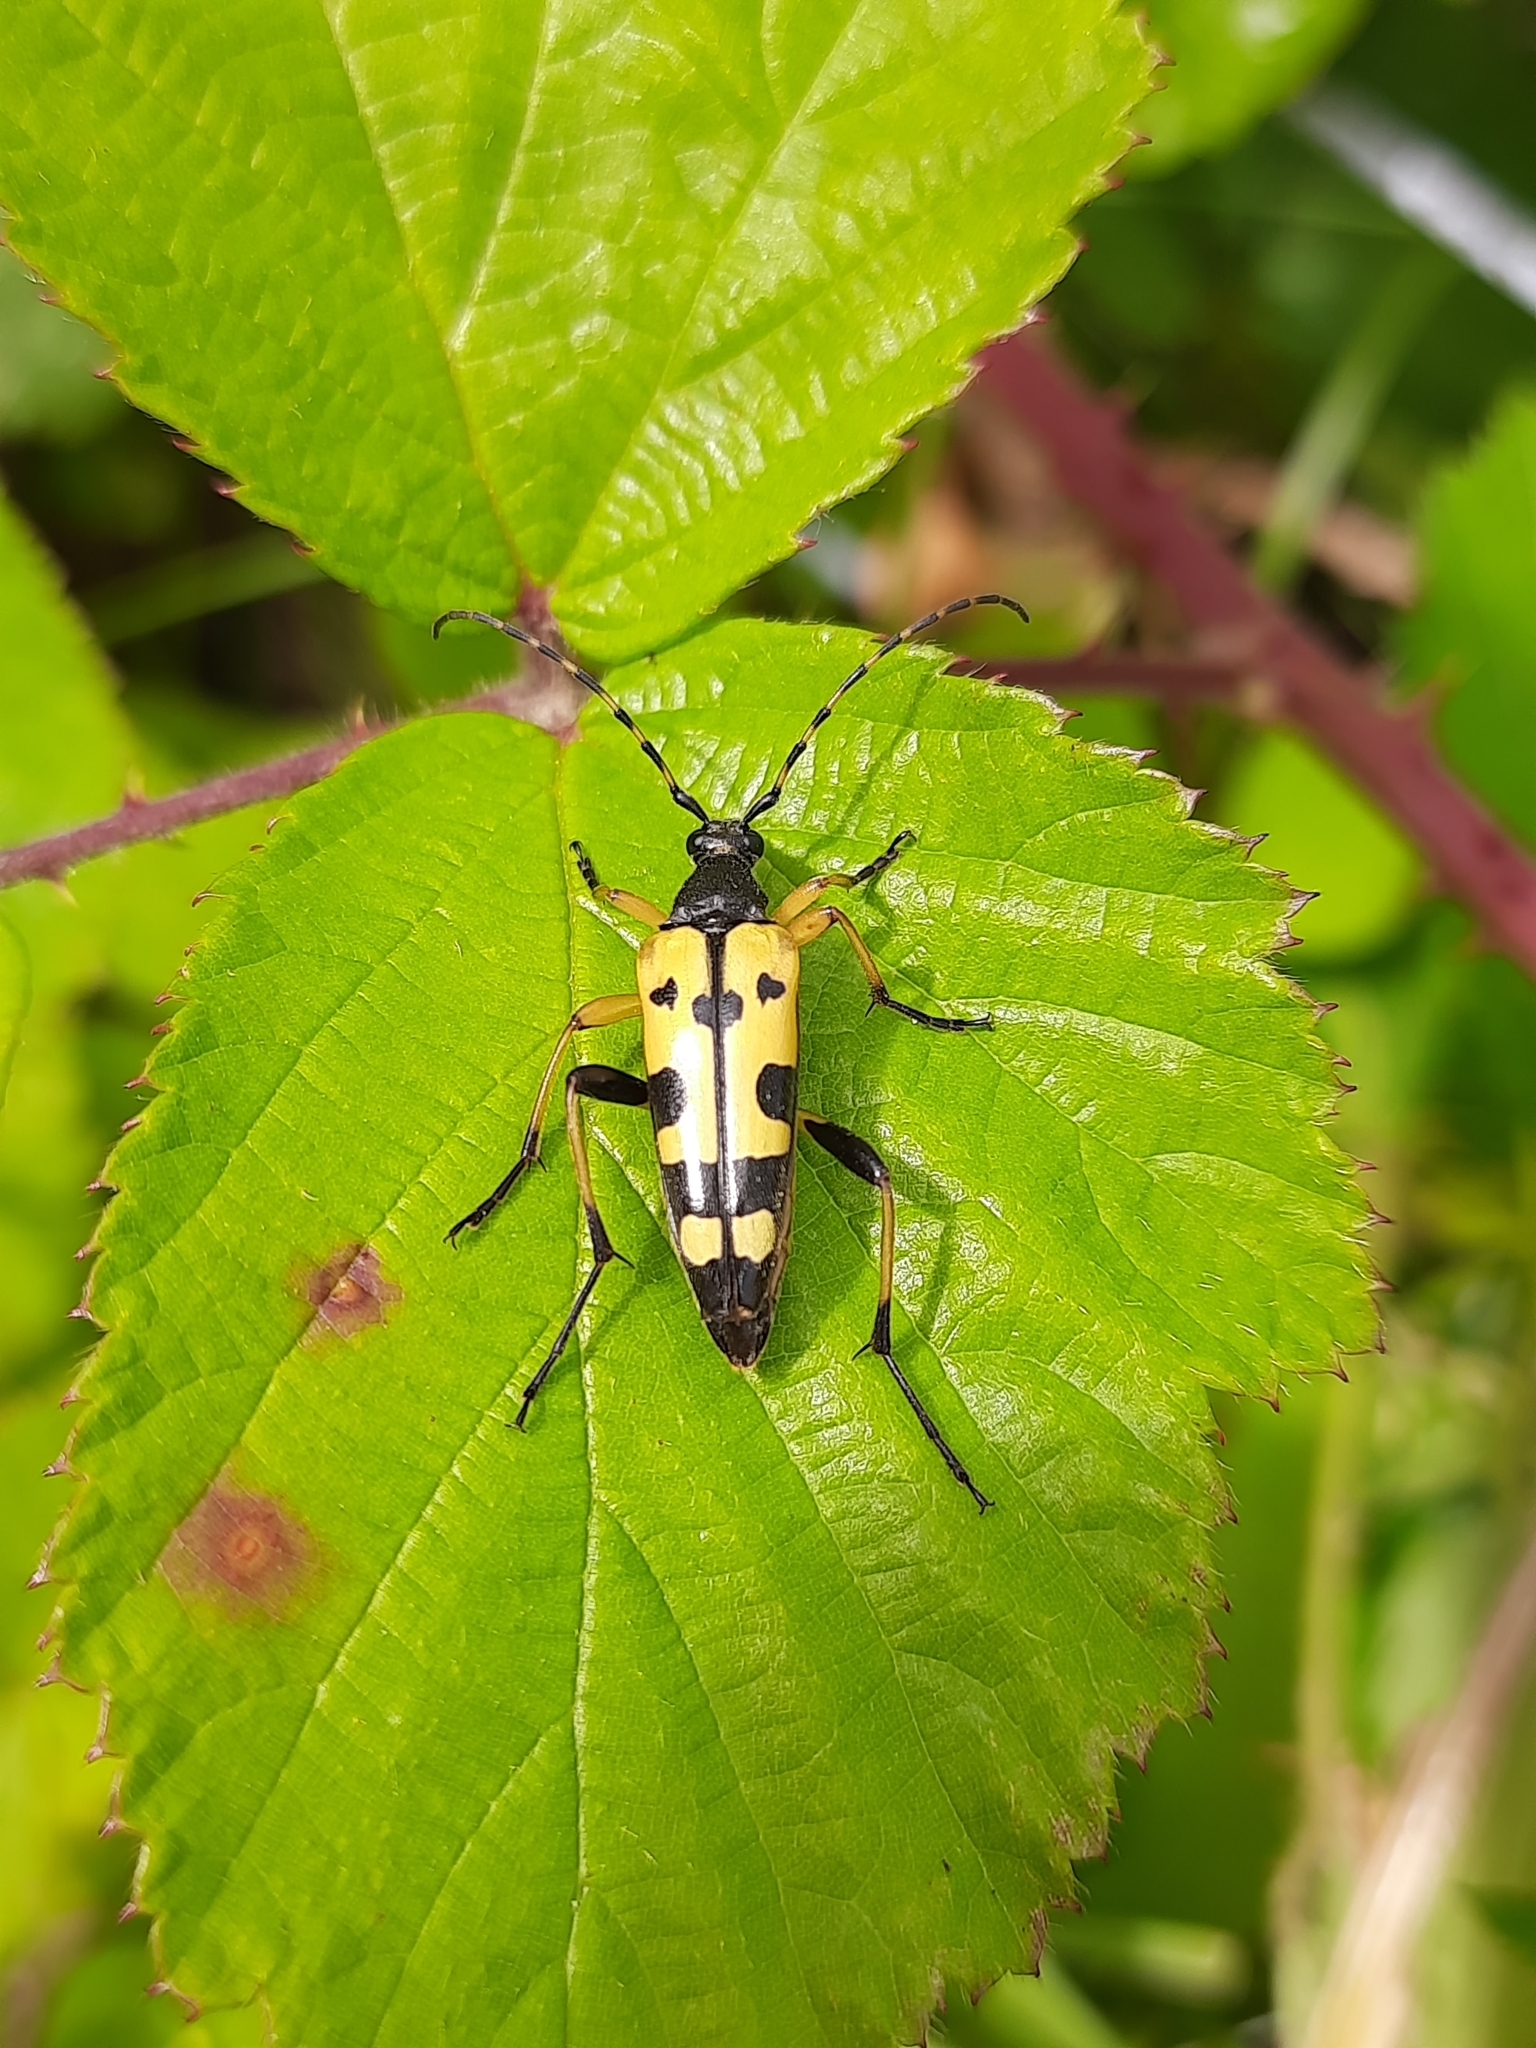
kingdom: Animalia
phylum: Arthropoda
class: Insecta
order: Coleoptera
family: Cerambycidae
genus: Rutpela
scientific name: Rutpela maculata
